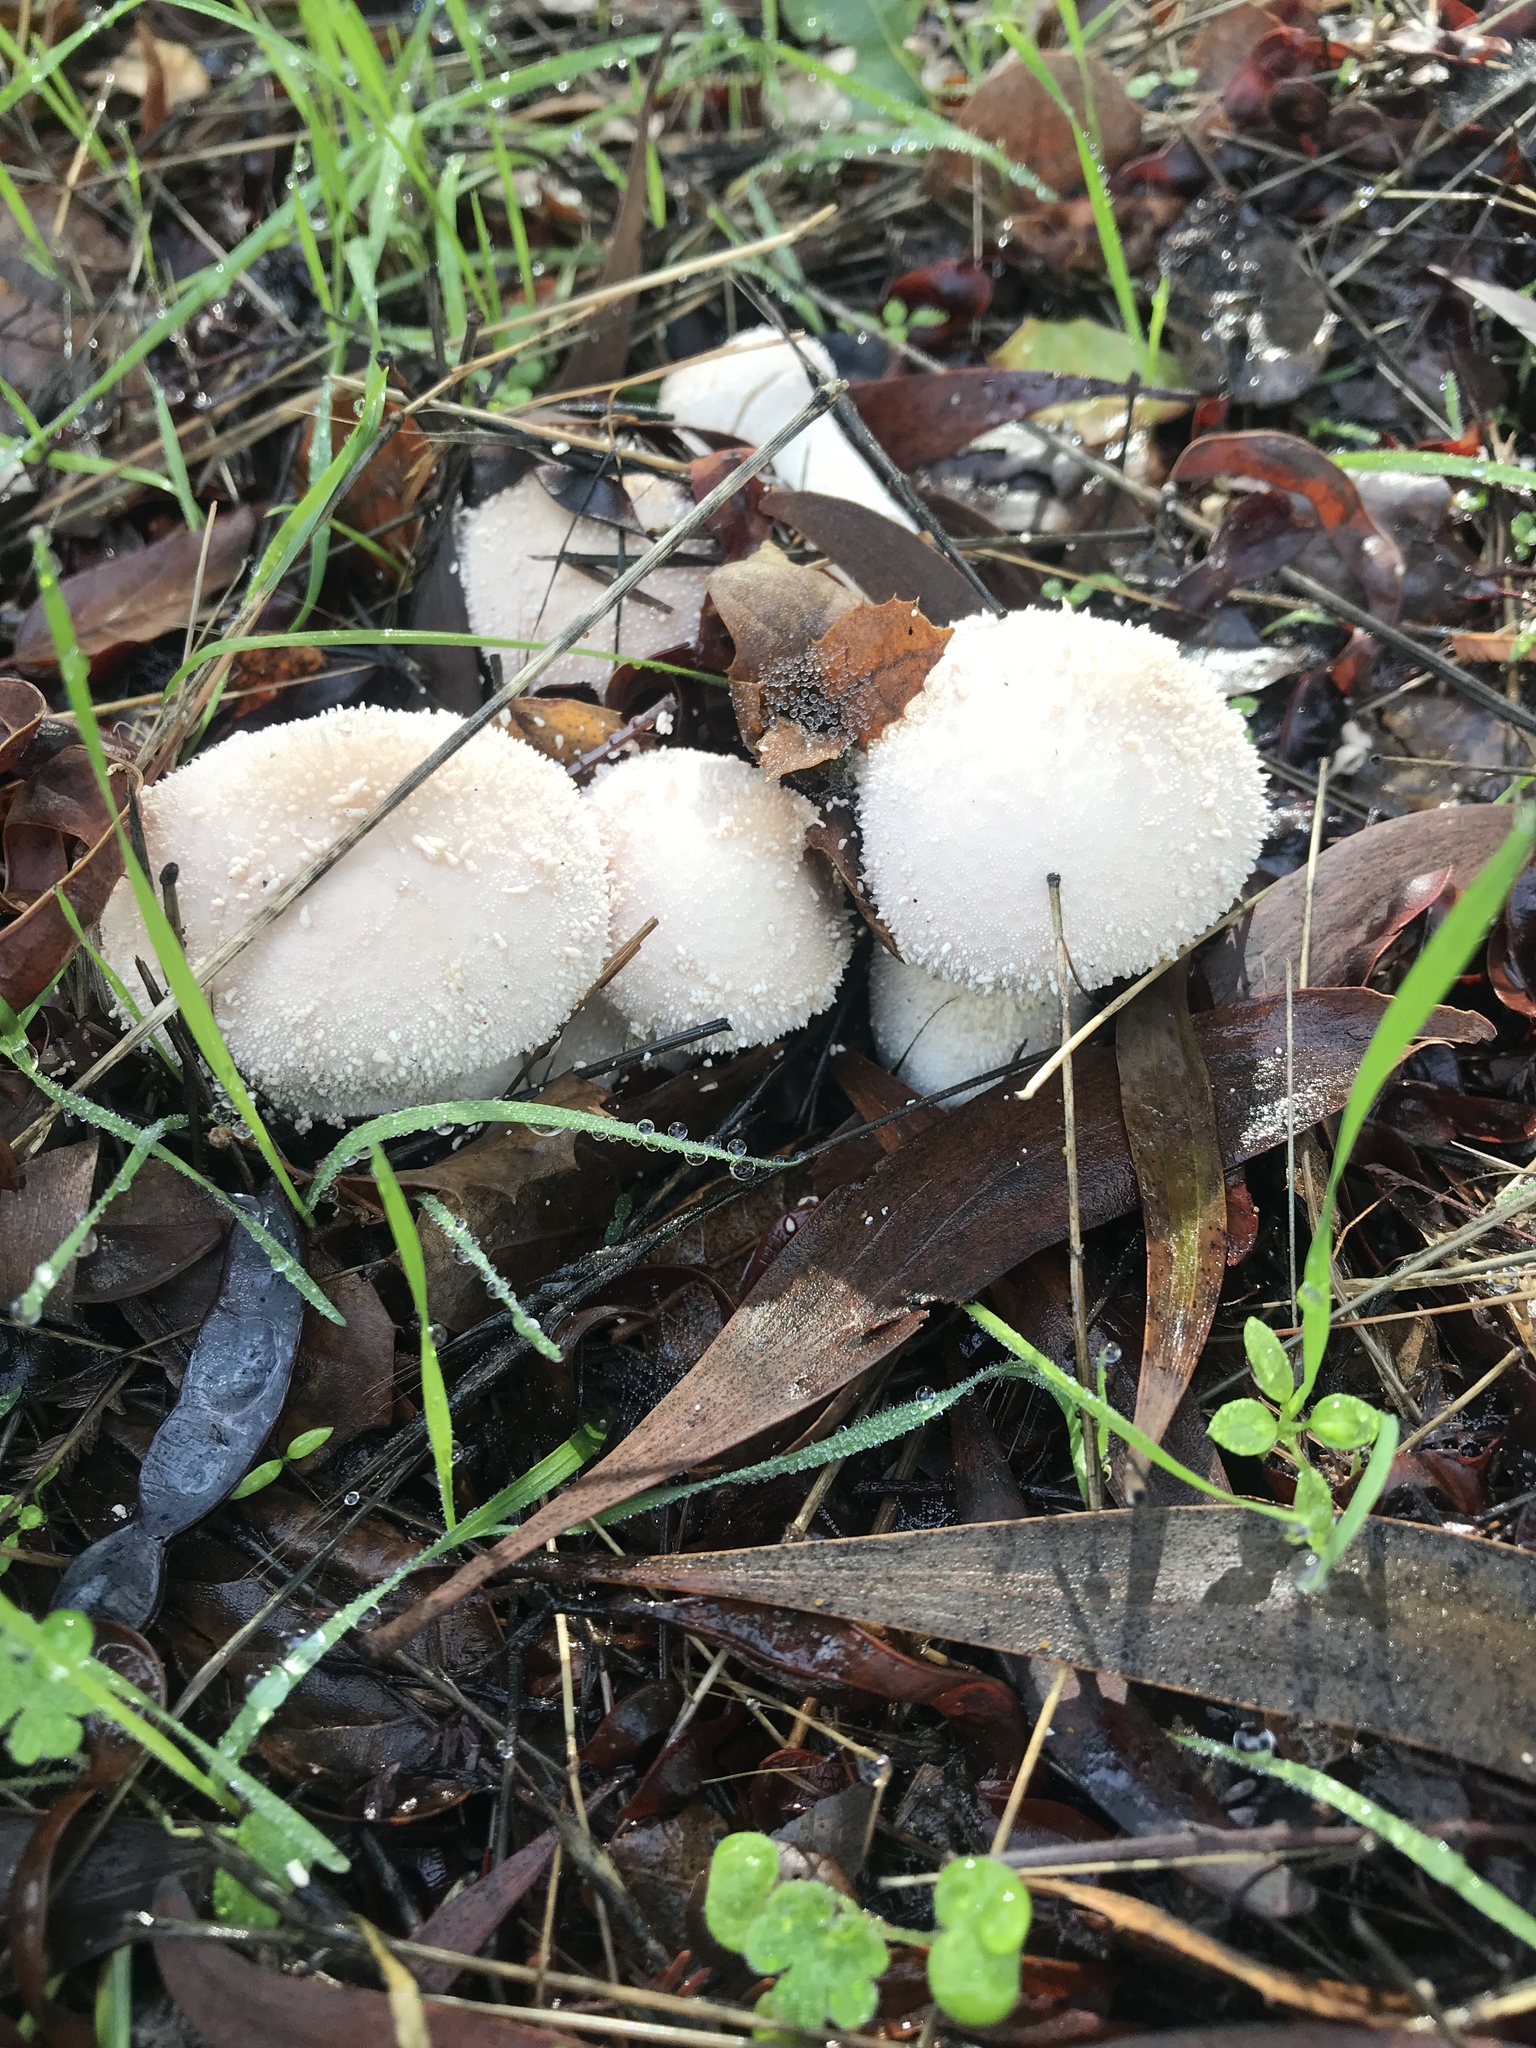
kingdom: Fungi
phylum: Basidiomycota
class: Agaricomycetes
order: Agaricales
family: Lycoperdaceae
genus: Lycoperdon
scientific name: Lycoperdon perlatum
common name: Common puffball
